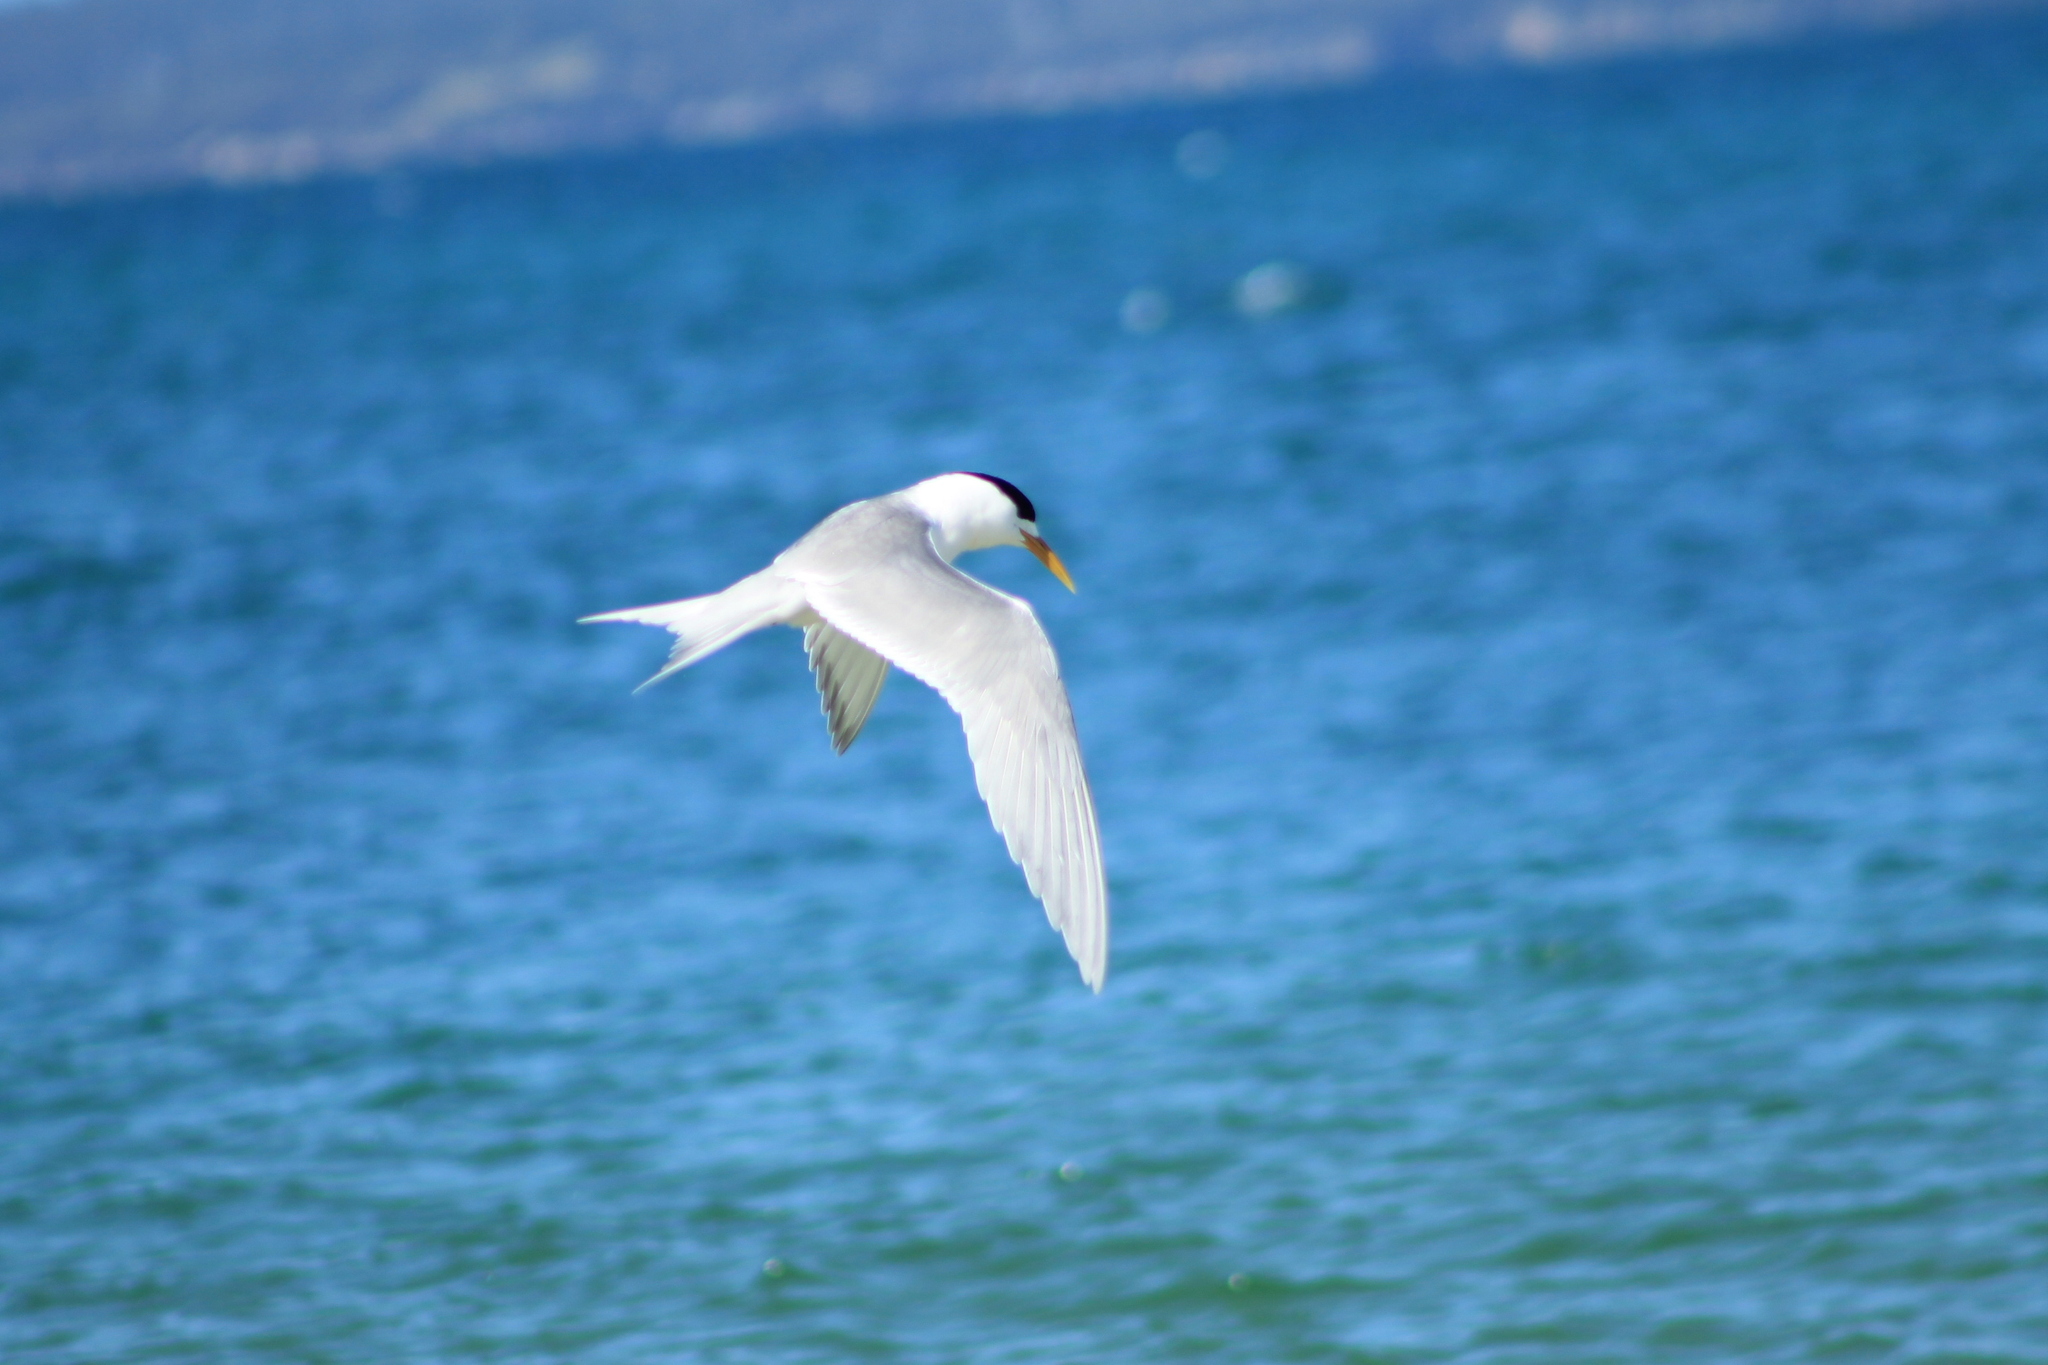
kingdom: Animalia
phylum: Chordata
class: Aves
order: Charadriiformes
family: Laridae
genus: Sternula
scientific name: Sternula nereis
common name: Fairy tern
